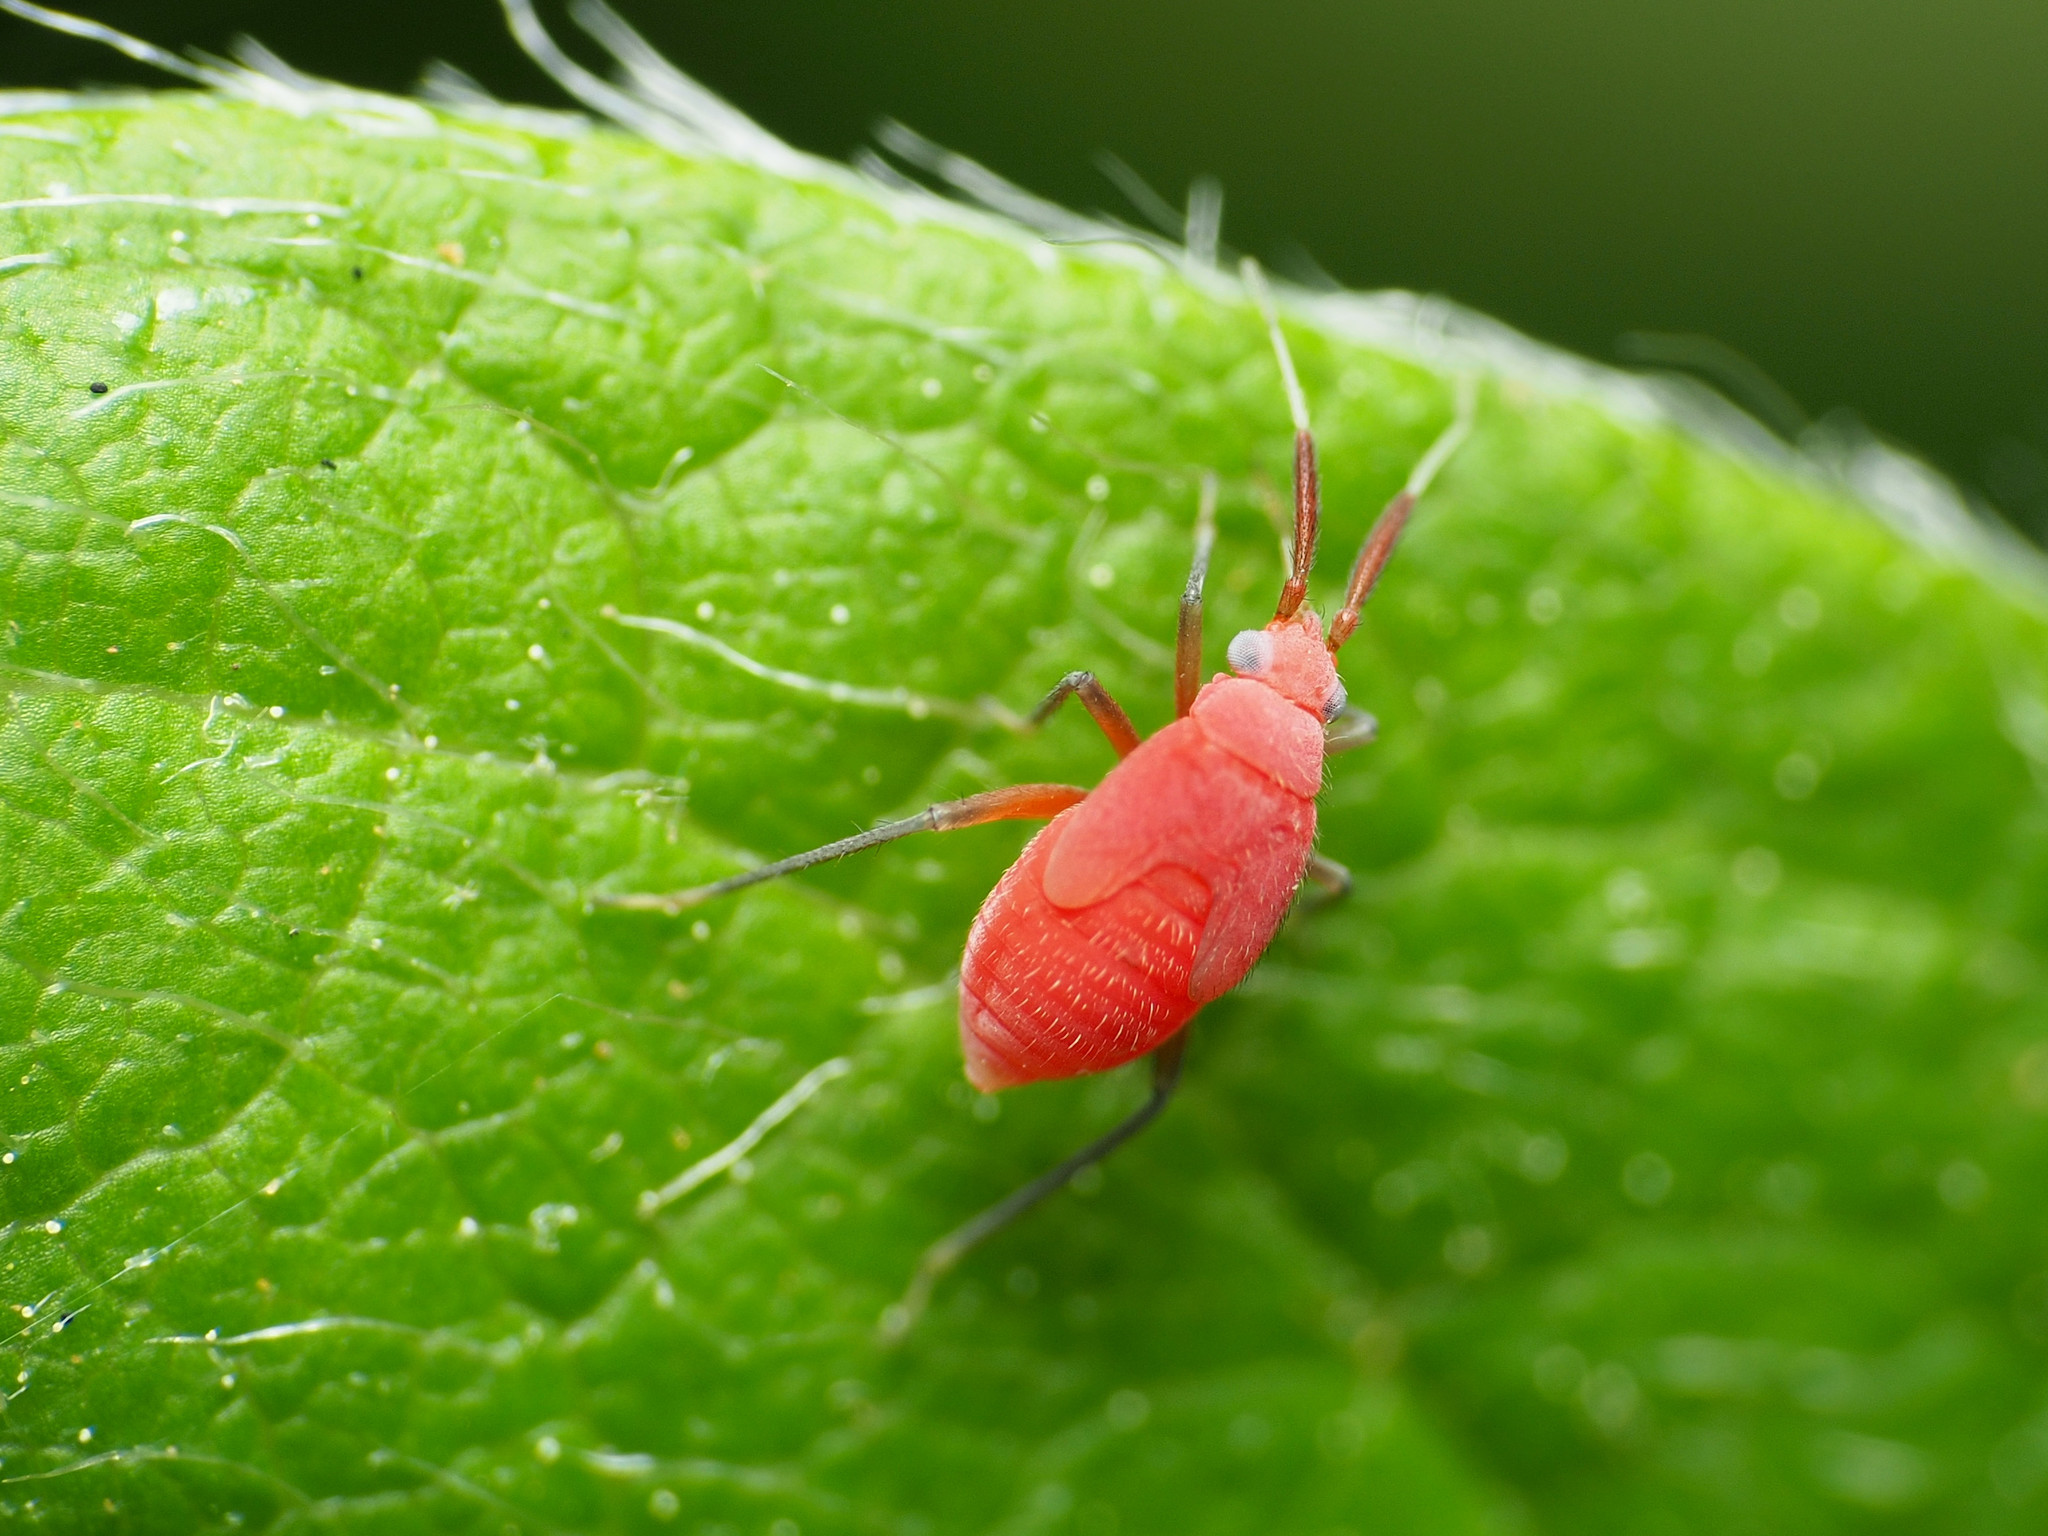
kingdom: Animalia
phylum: Arthropoda
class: Insecta
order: Hemiptera
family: Miridae
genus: Coccobaphes
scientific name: Coccobaphes frontifer
